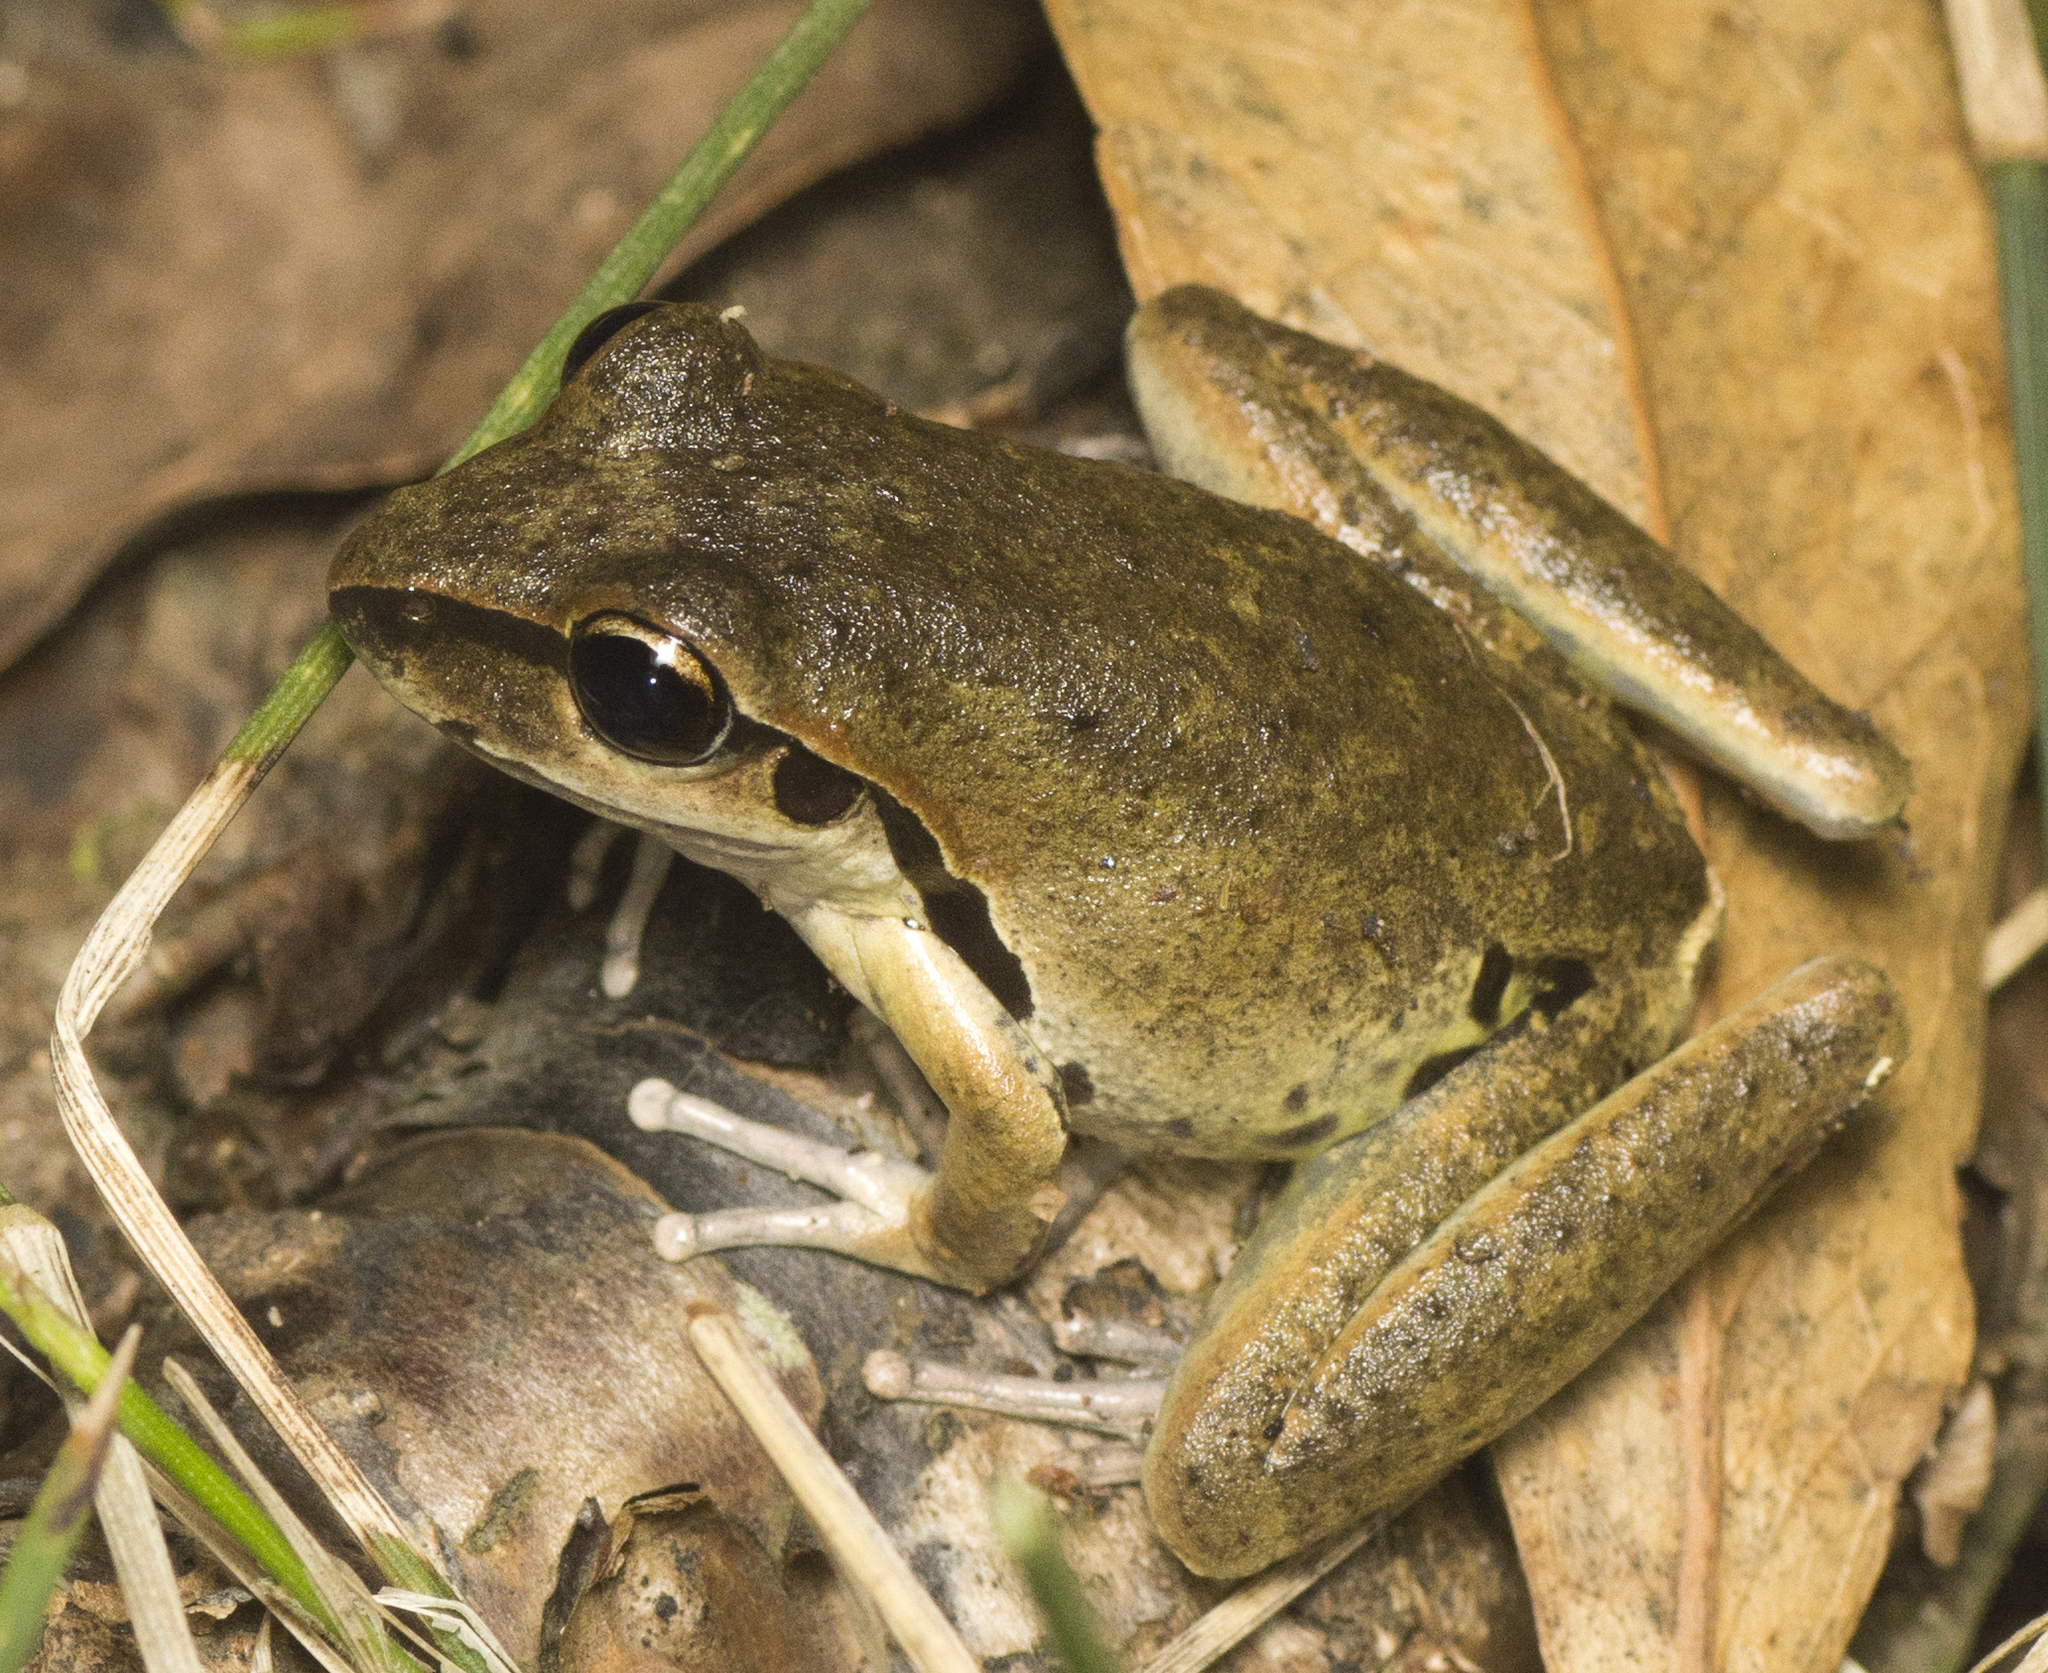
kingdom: Animalia
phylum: Chordata
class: Amphibia
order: Anura
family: Pelodryadidae
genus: Ranoidea
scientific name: Ranoidea wilcoxii
